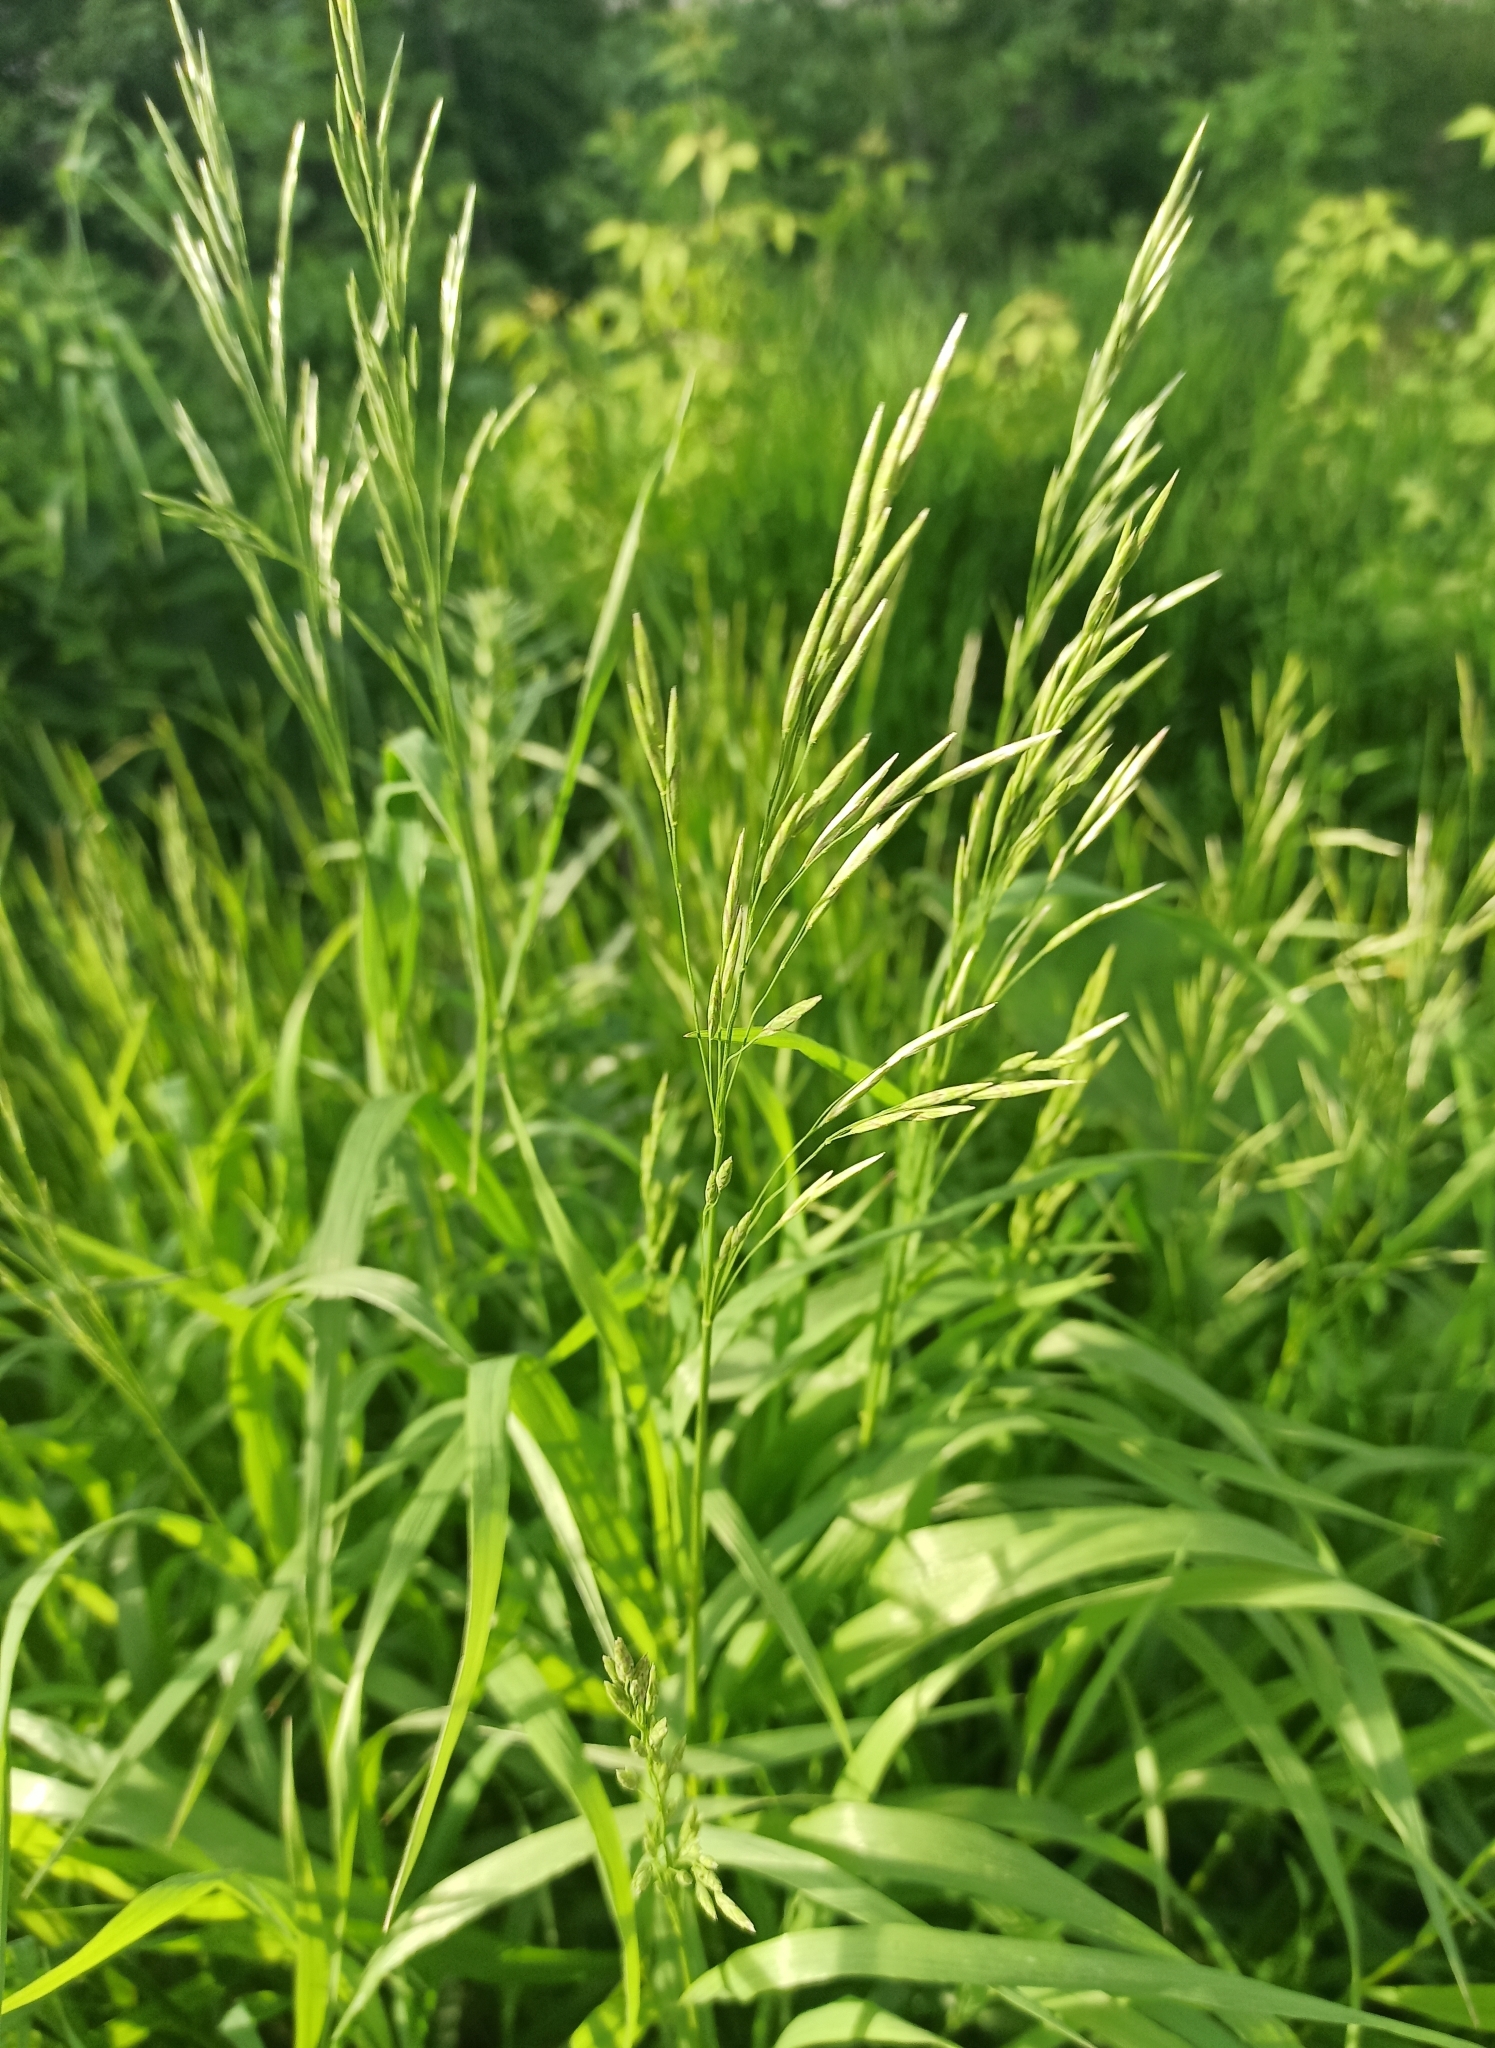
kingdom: Plantae
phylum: Tracheophyta
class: Liliopsida
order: Poales
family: Poaceae
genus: Bromus
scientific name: Bromus inermis
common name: Smooth brome
